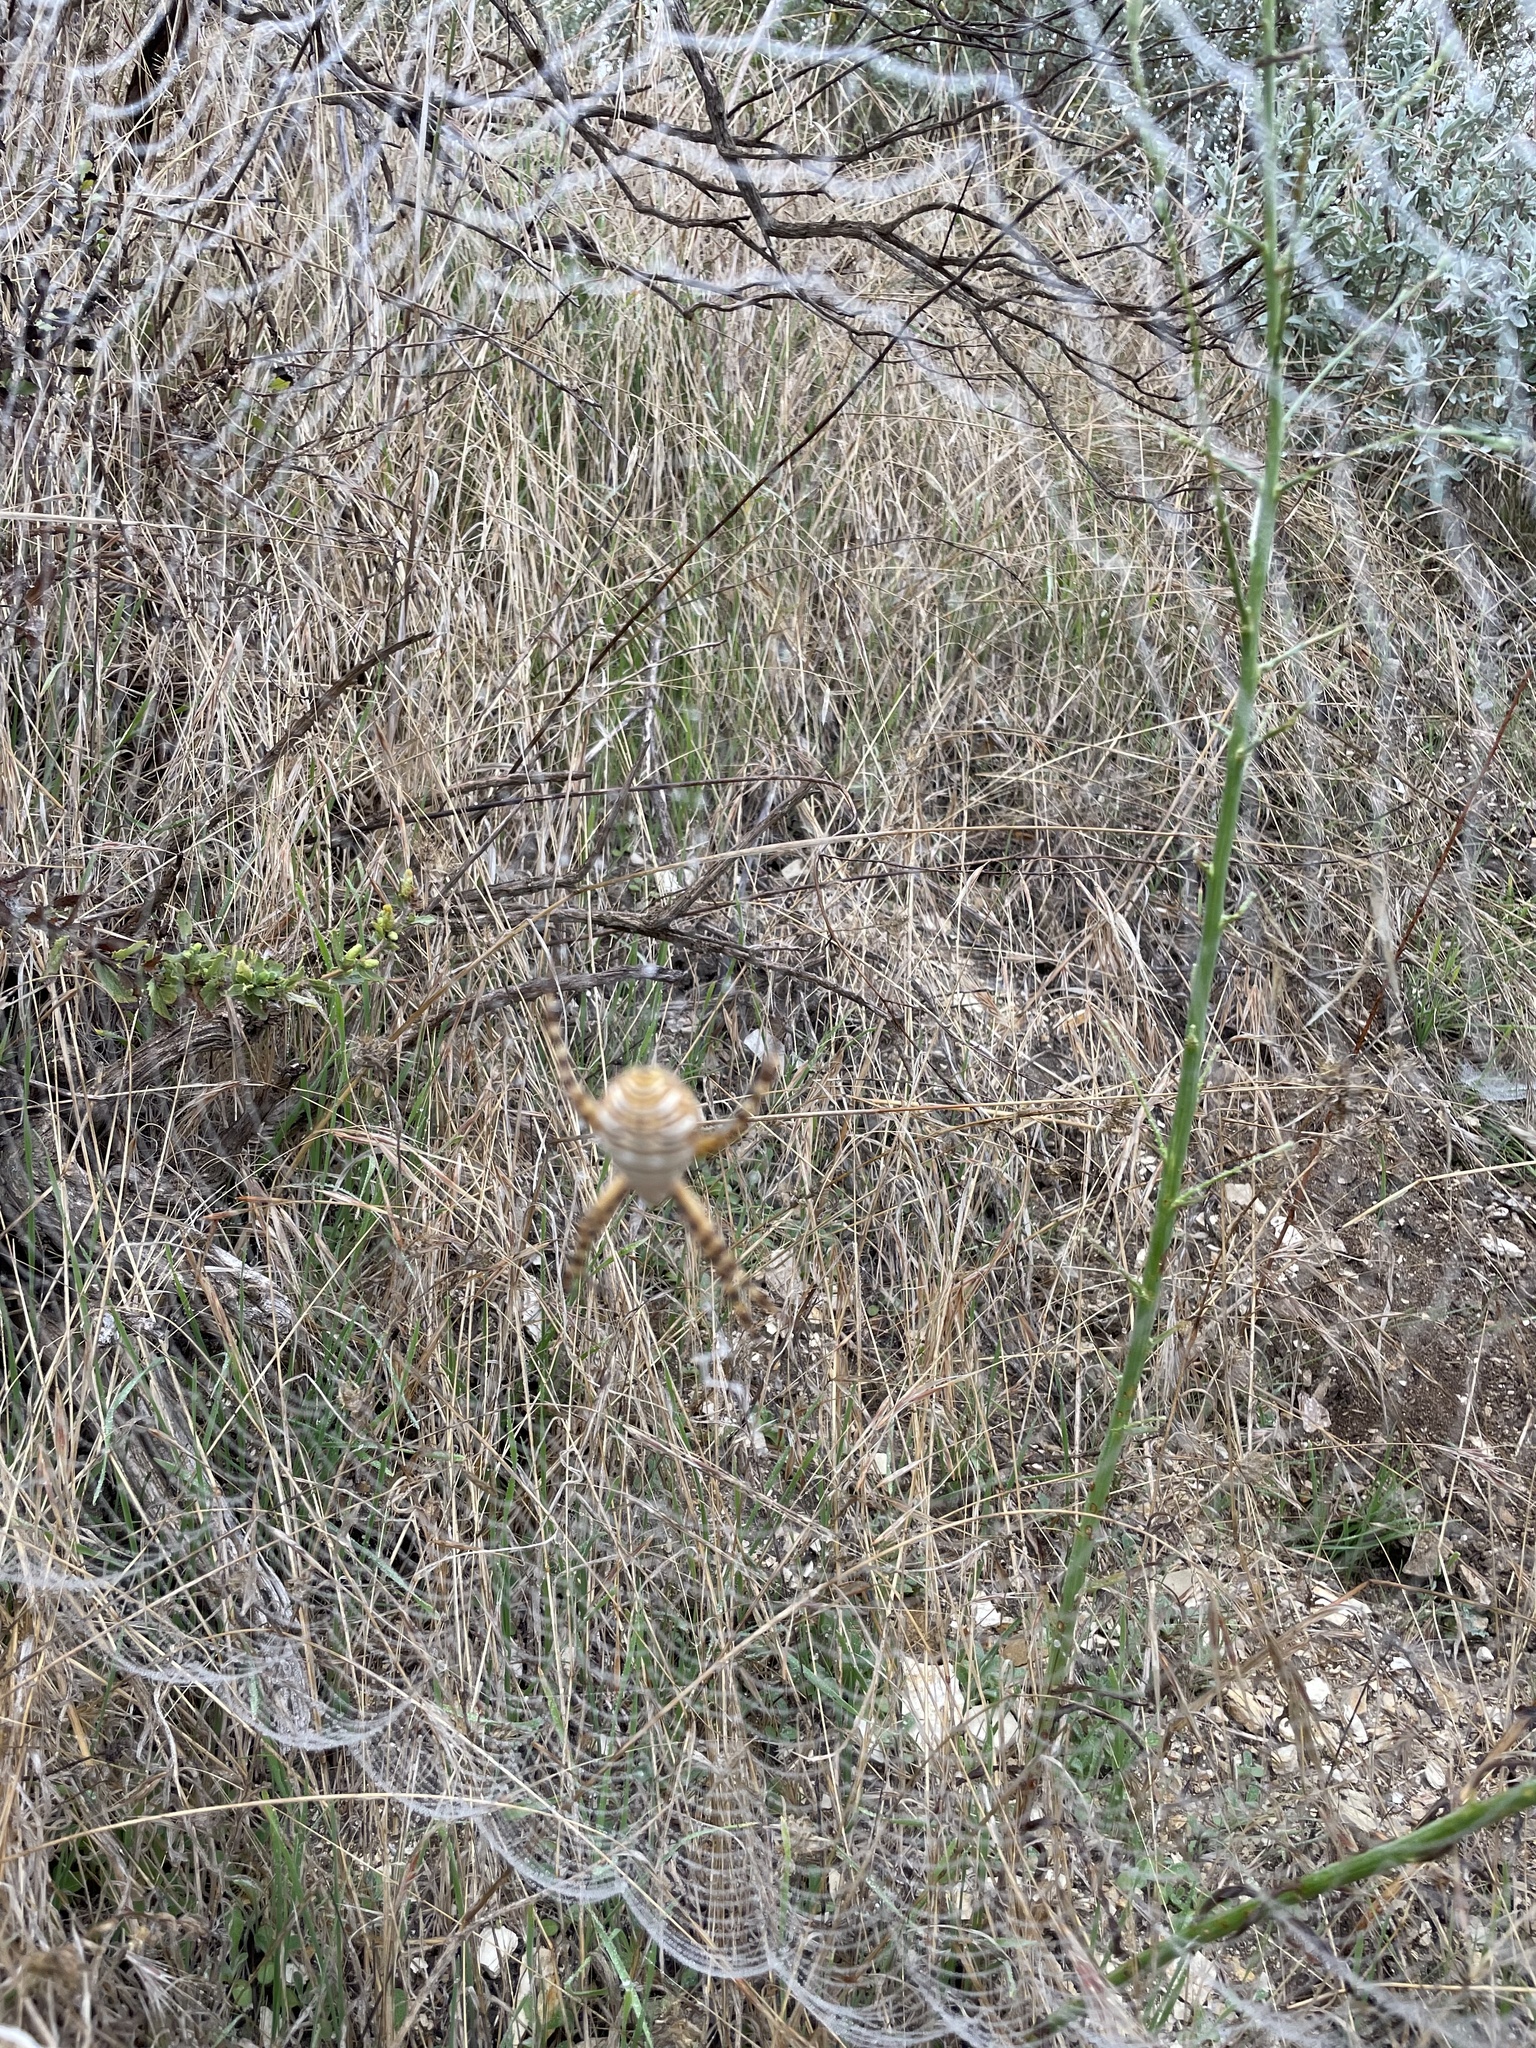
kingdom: Animalia
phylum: Arthropoda
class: Arachnida
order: Araneae
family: Araneidae
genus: Argiope
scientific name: Argiope trifasciata
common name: Banded garden spider
